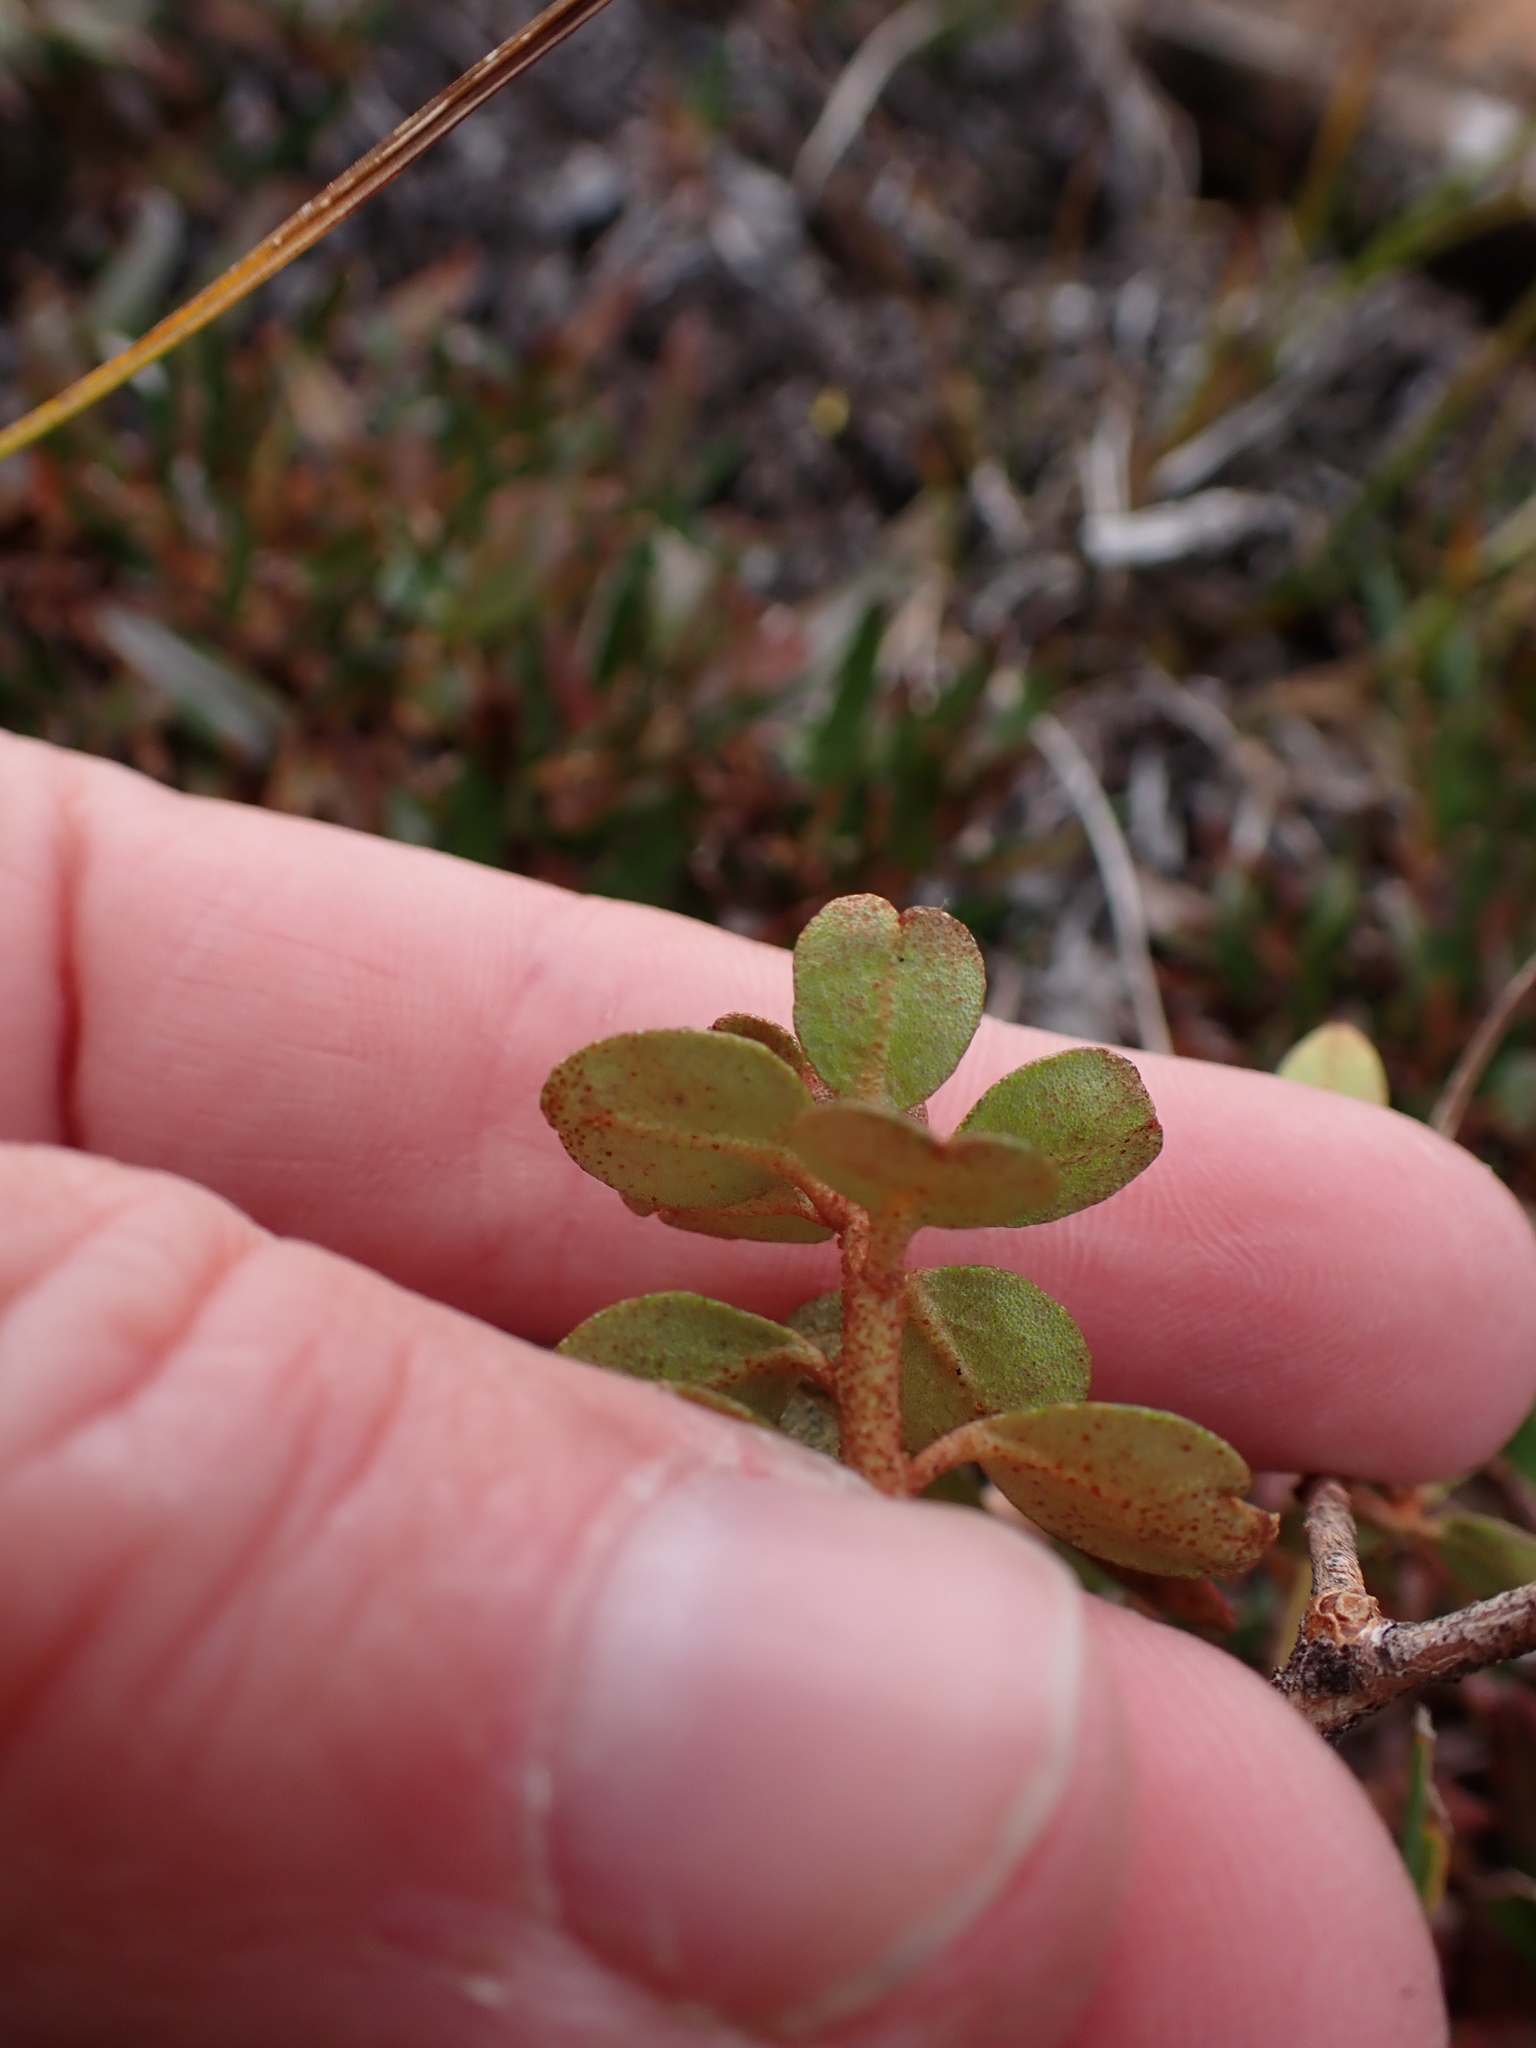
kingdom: Plantae
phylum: Tracheophyta
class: Magnoliopsida
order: Ericales
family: Ericaceae
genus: Rhododendron
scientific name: Rhododendron lapponicum
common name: Lapland rhododendron
